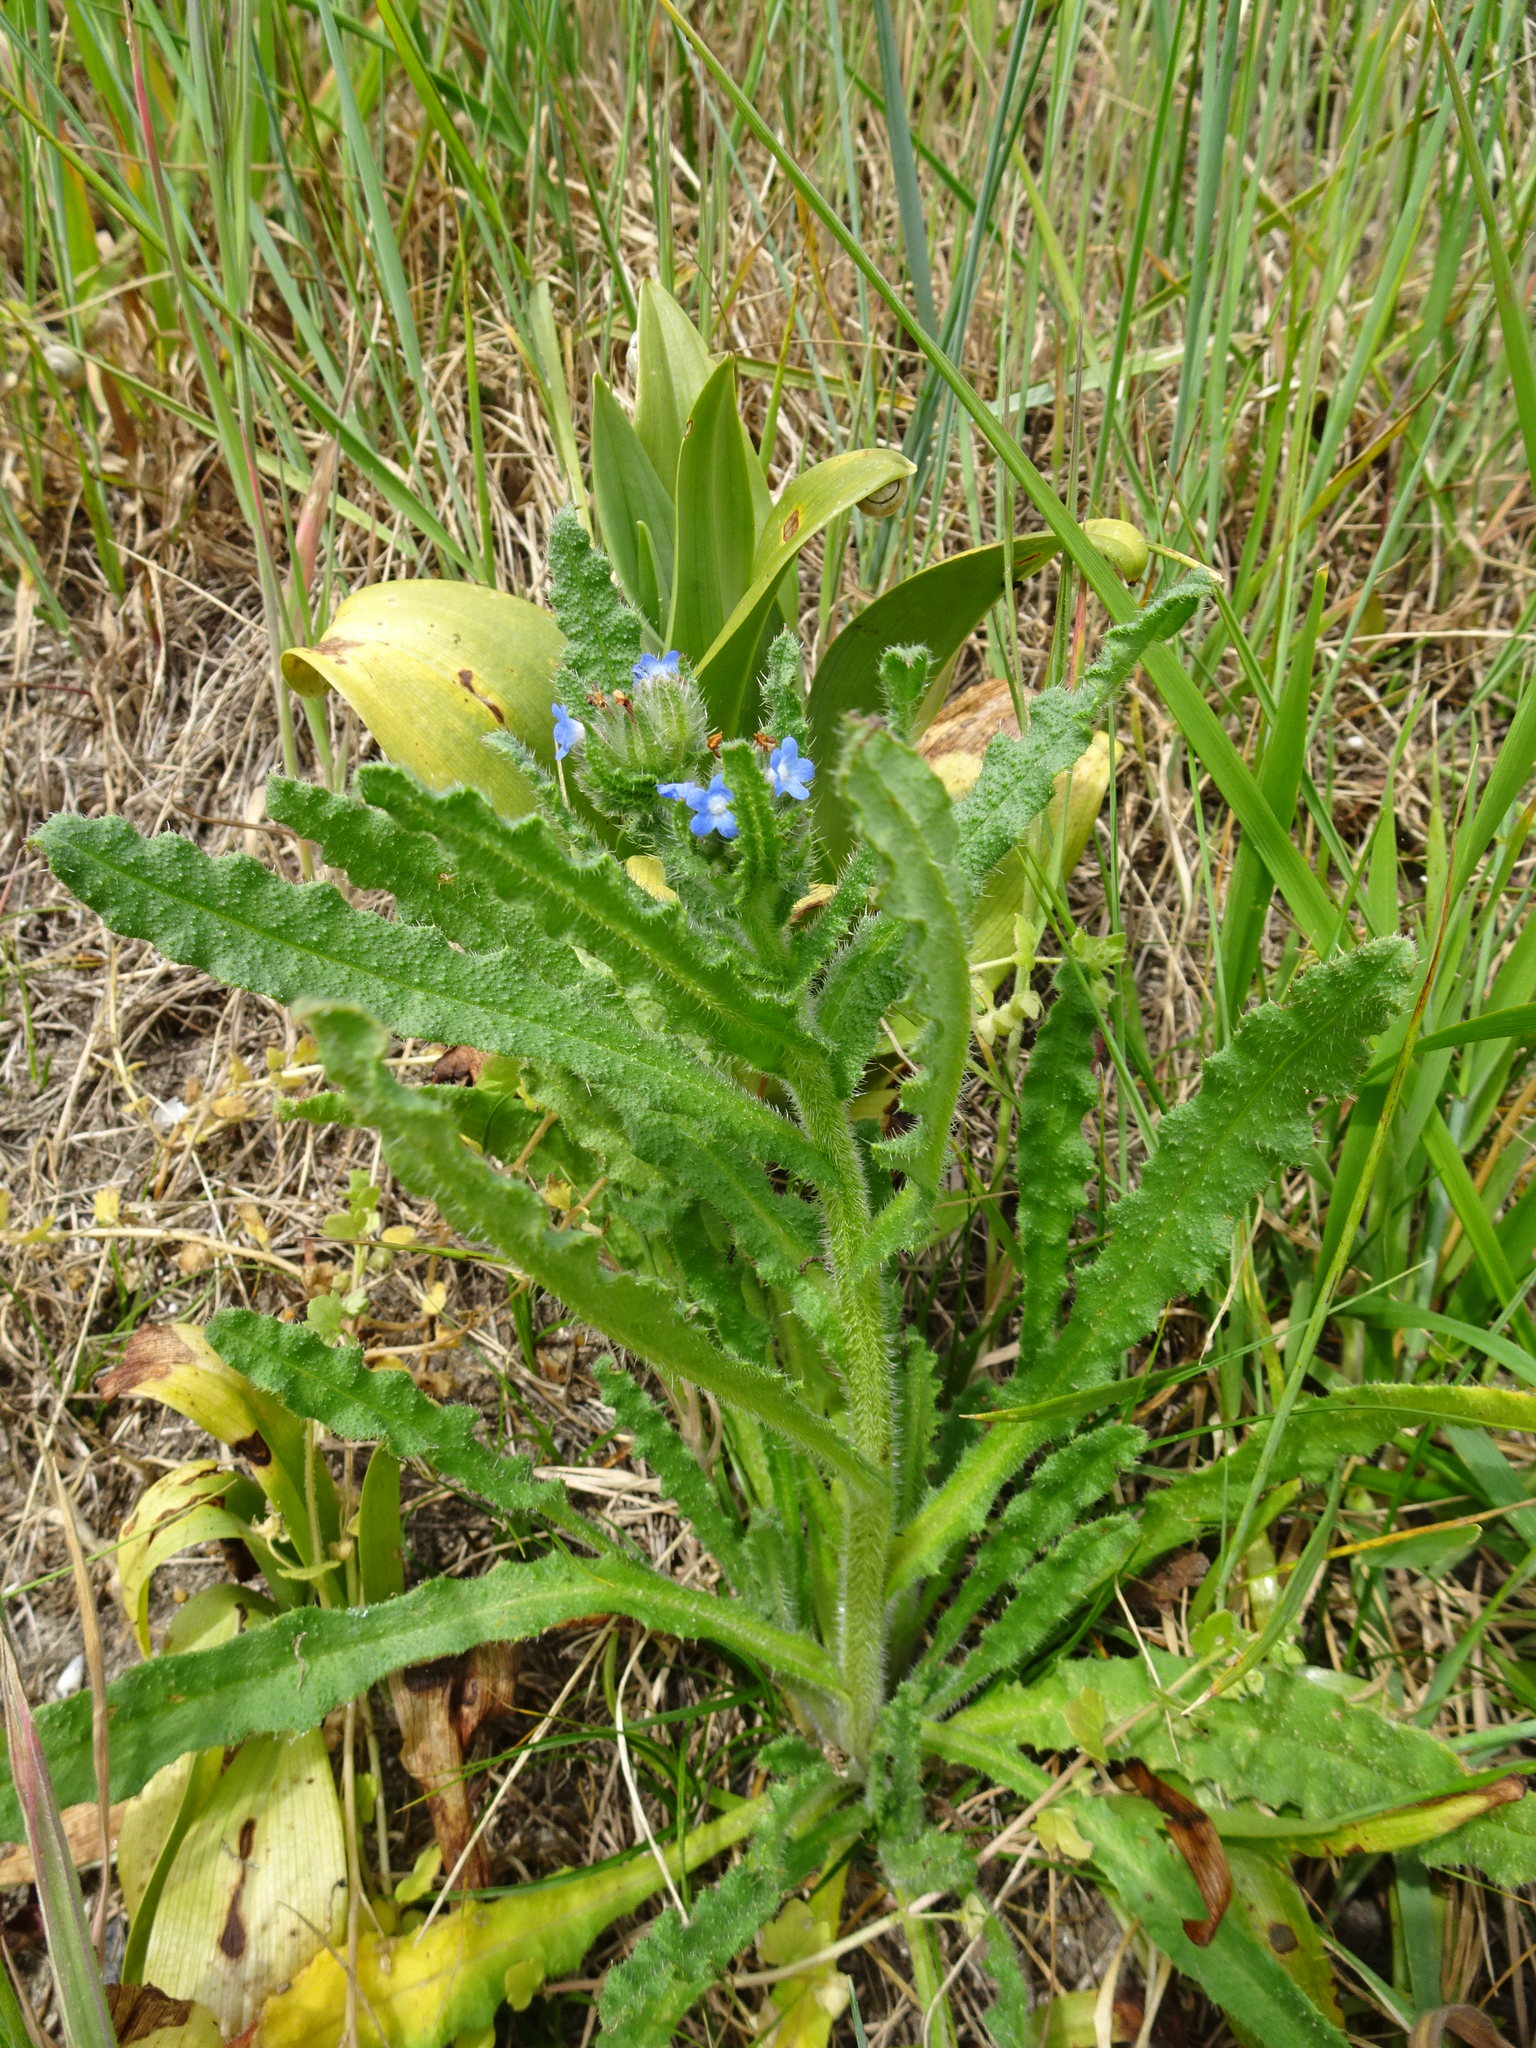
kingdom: Plantae
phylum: Tracheophyta
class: Magnoliopsida
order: Boraginales
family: Boraginaceae
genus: Lycopsis
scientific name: Lycopsis arvensis
